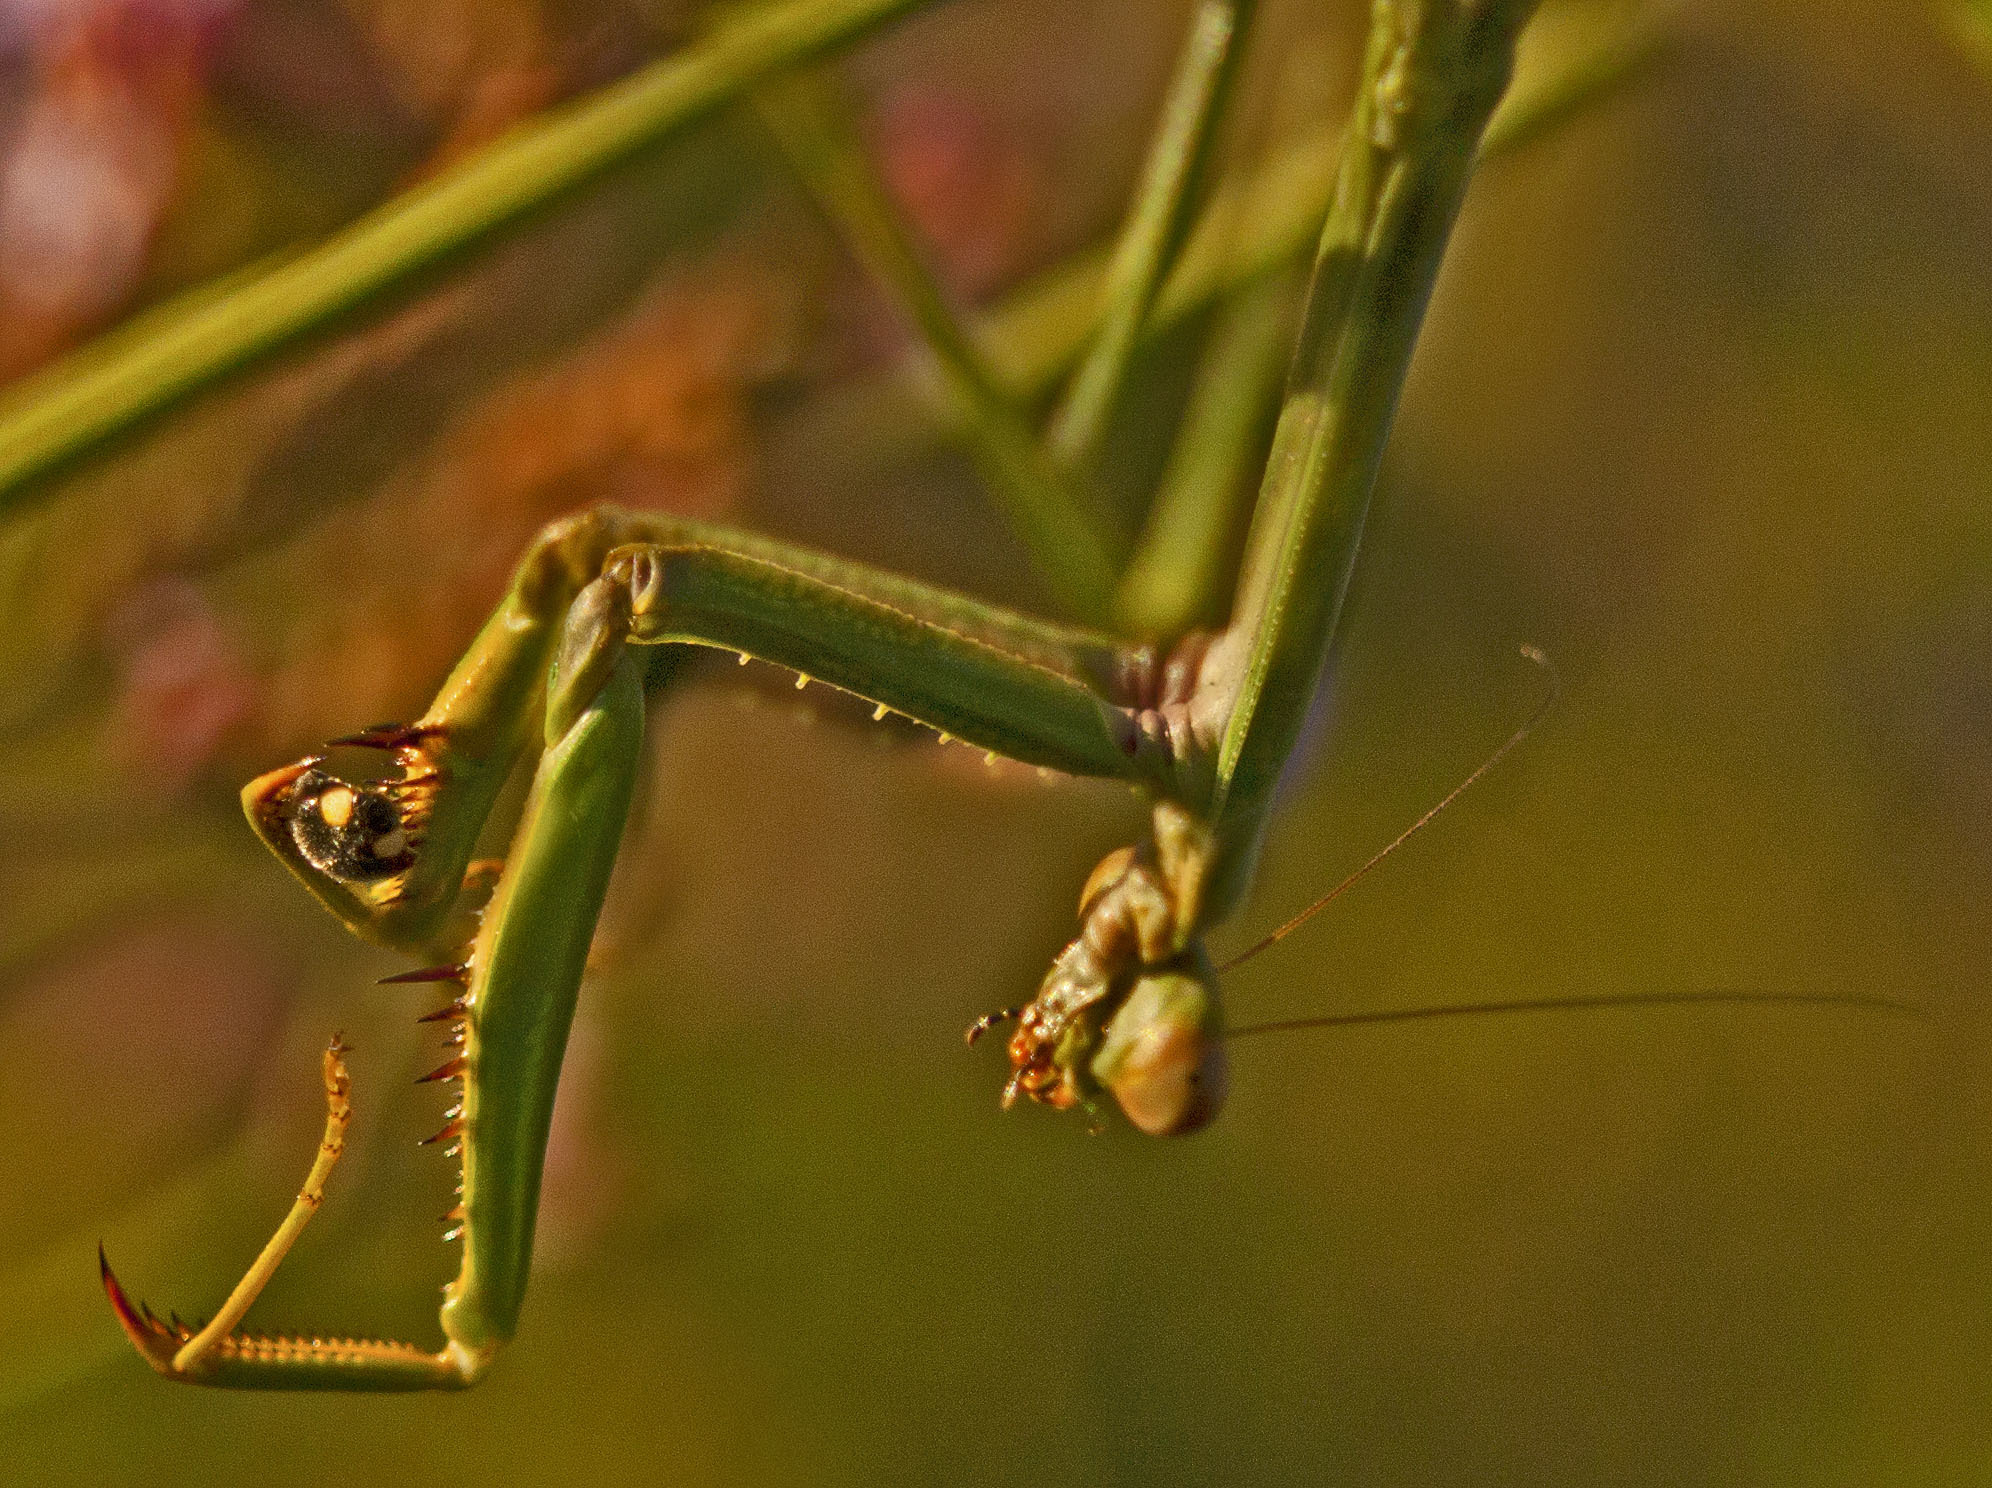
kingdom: Animalia
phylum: Arthropoda
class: Insecta
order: Mantodea
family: Mantidae
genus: Archimantis
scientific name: Archimantis latistyla
